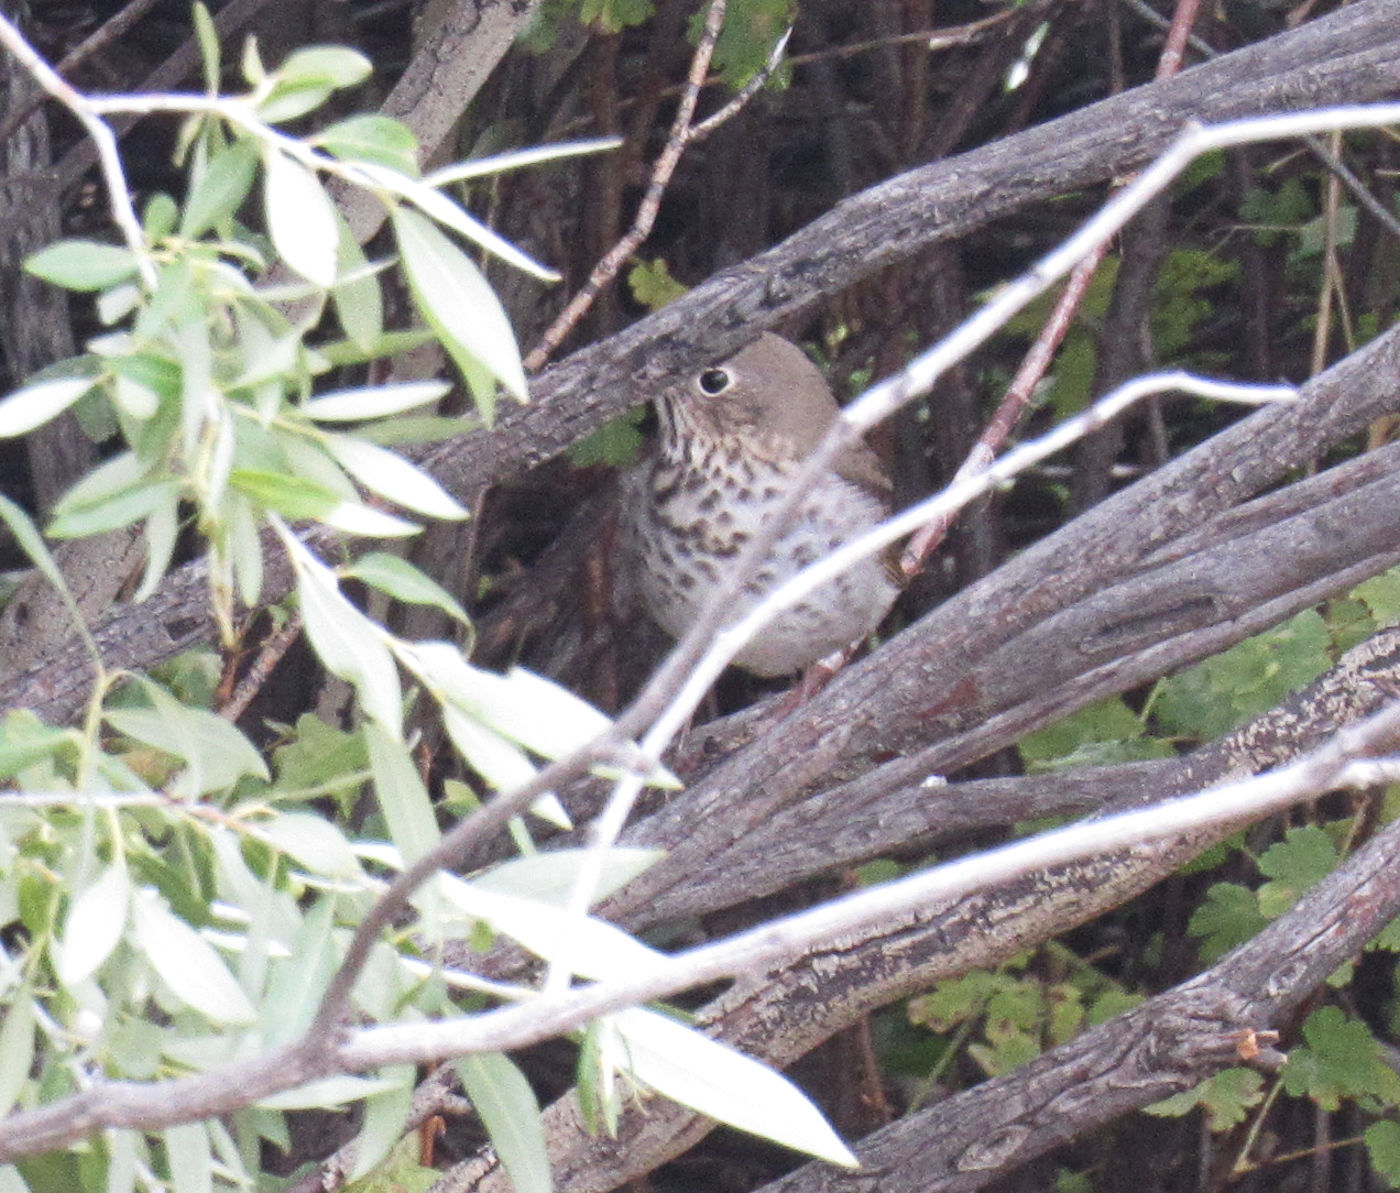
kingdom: Animalia
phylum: Chordata
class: Aves
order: Passeriformes
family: Turdidae
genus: Catharus
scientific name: Catharus guttatus
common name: Hermit thrush
